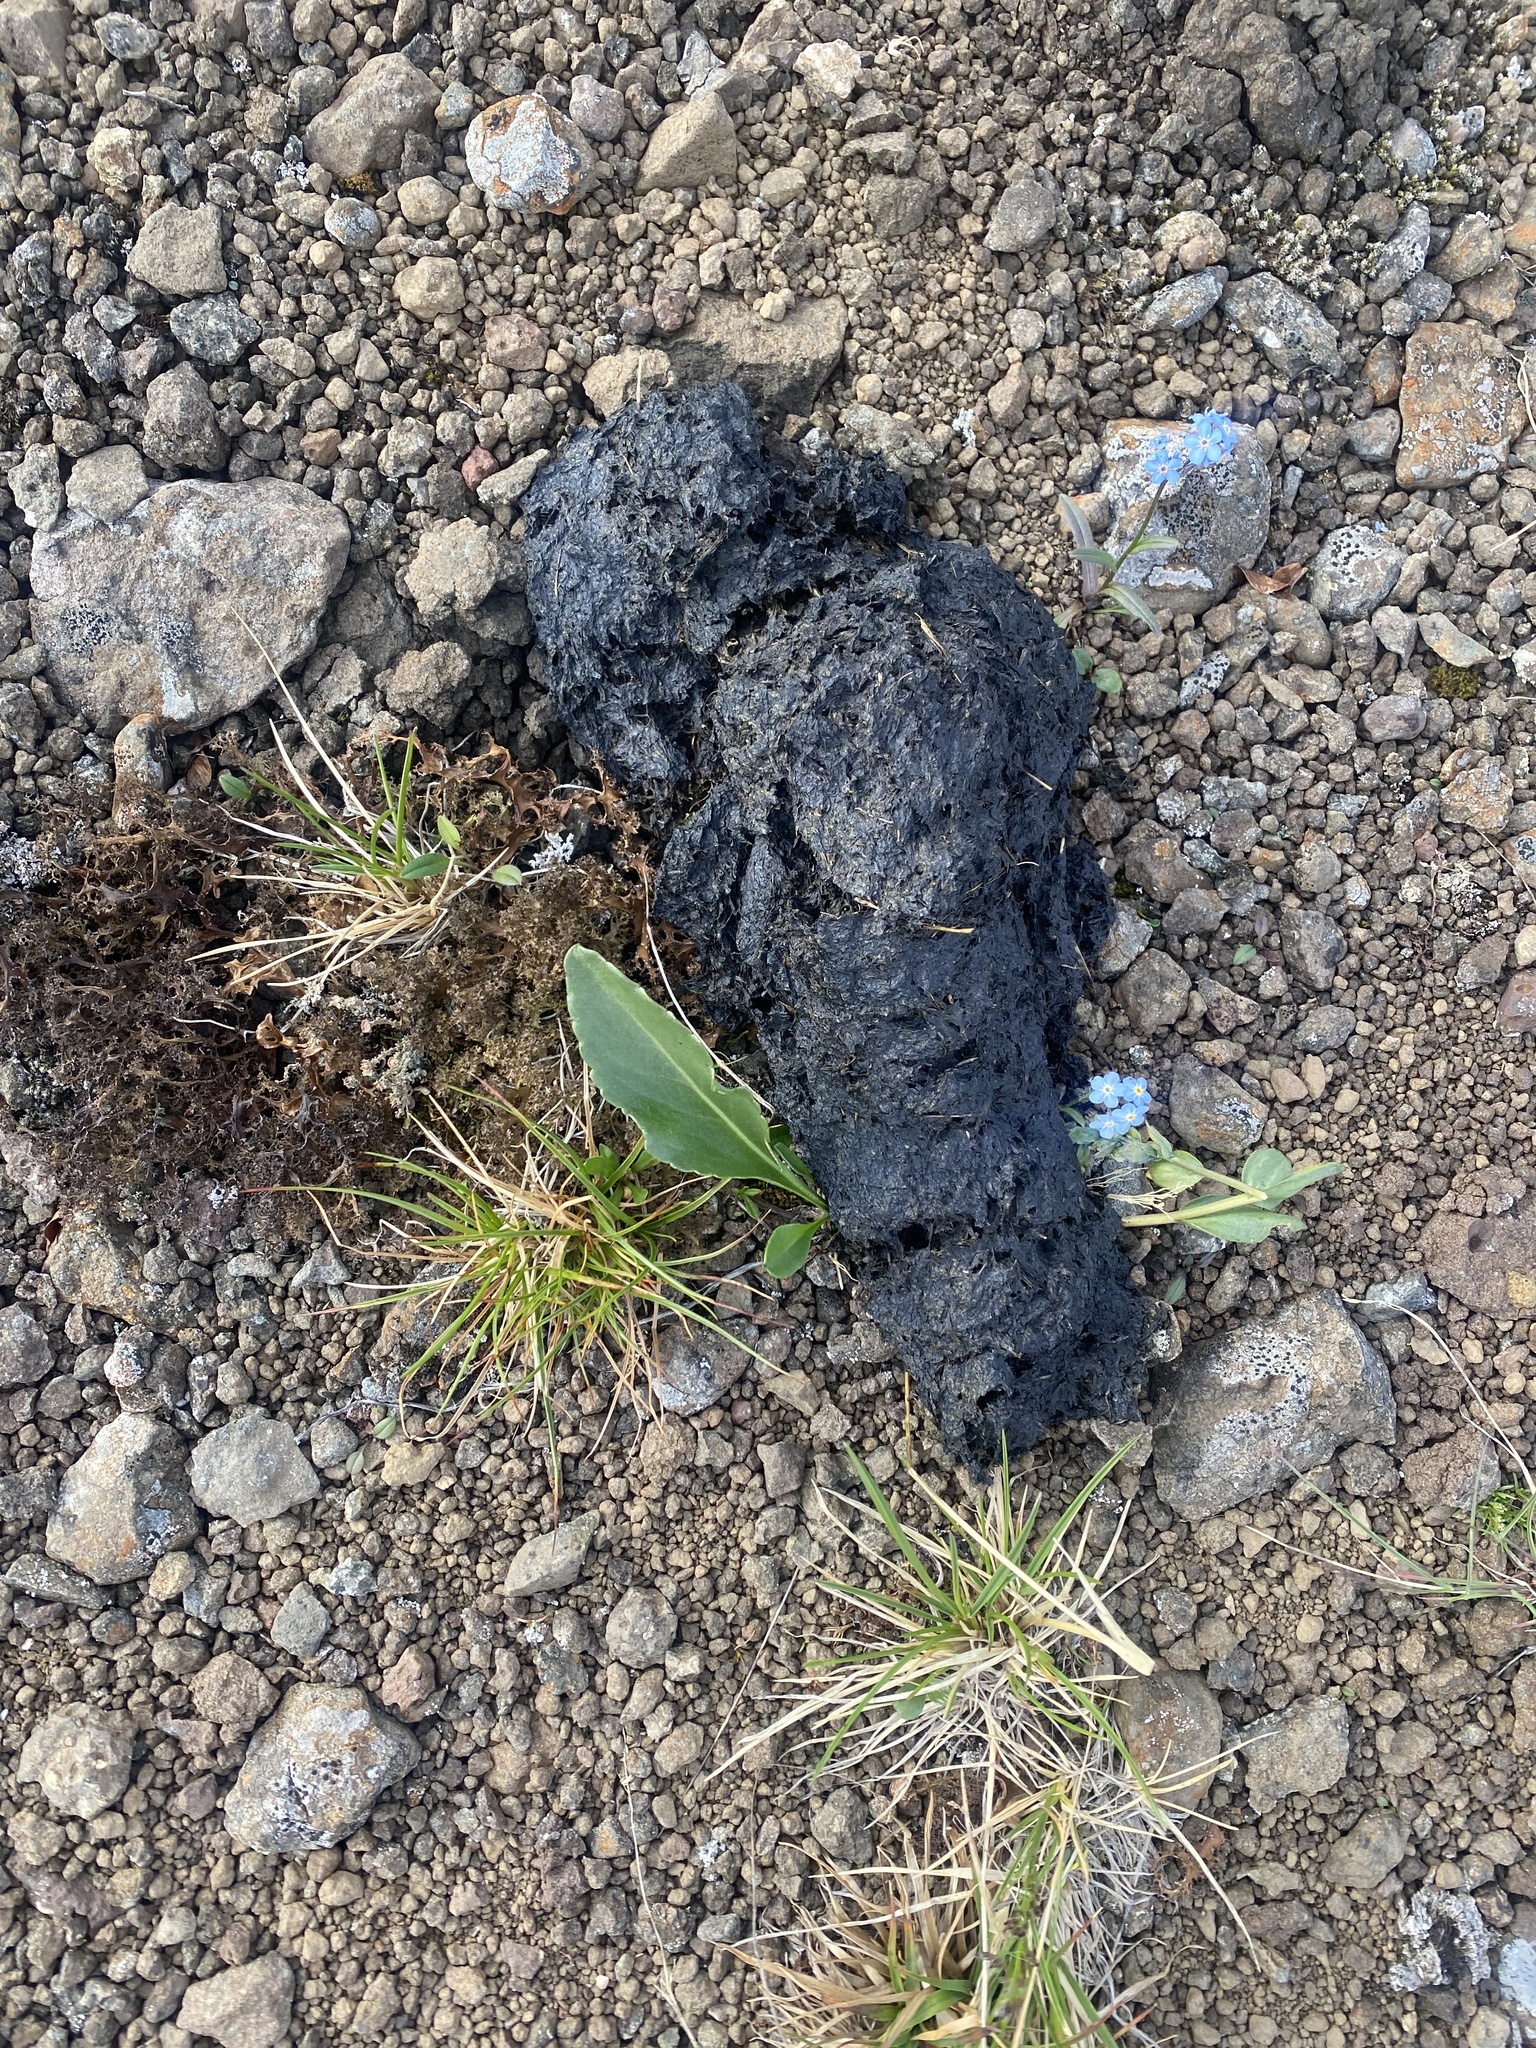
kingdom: Animalia
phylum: Chordata
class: Mammalia
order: Carnivora
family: Ursidae
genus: Ursus
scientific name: Ursus arctos
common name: Brown bear
